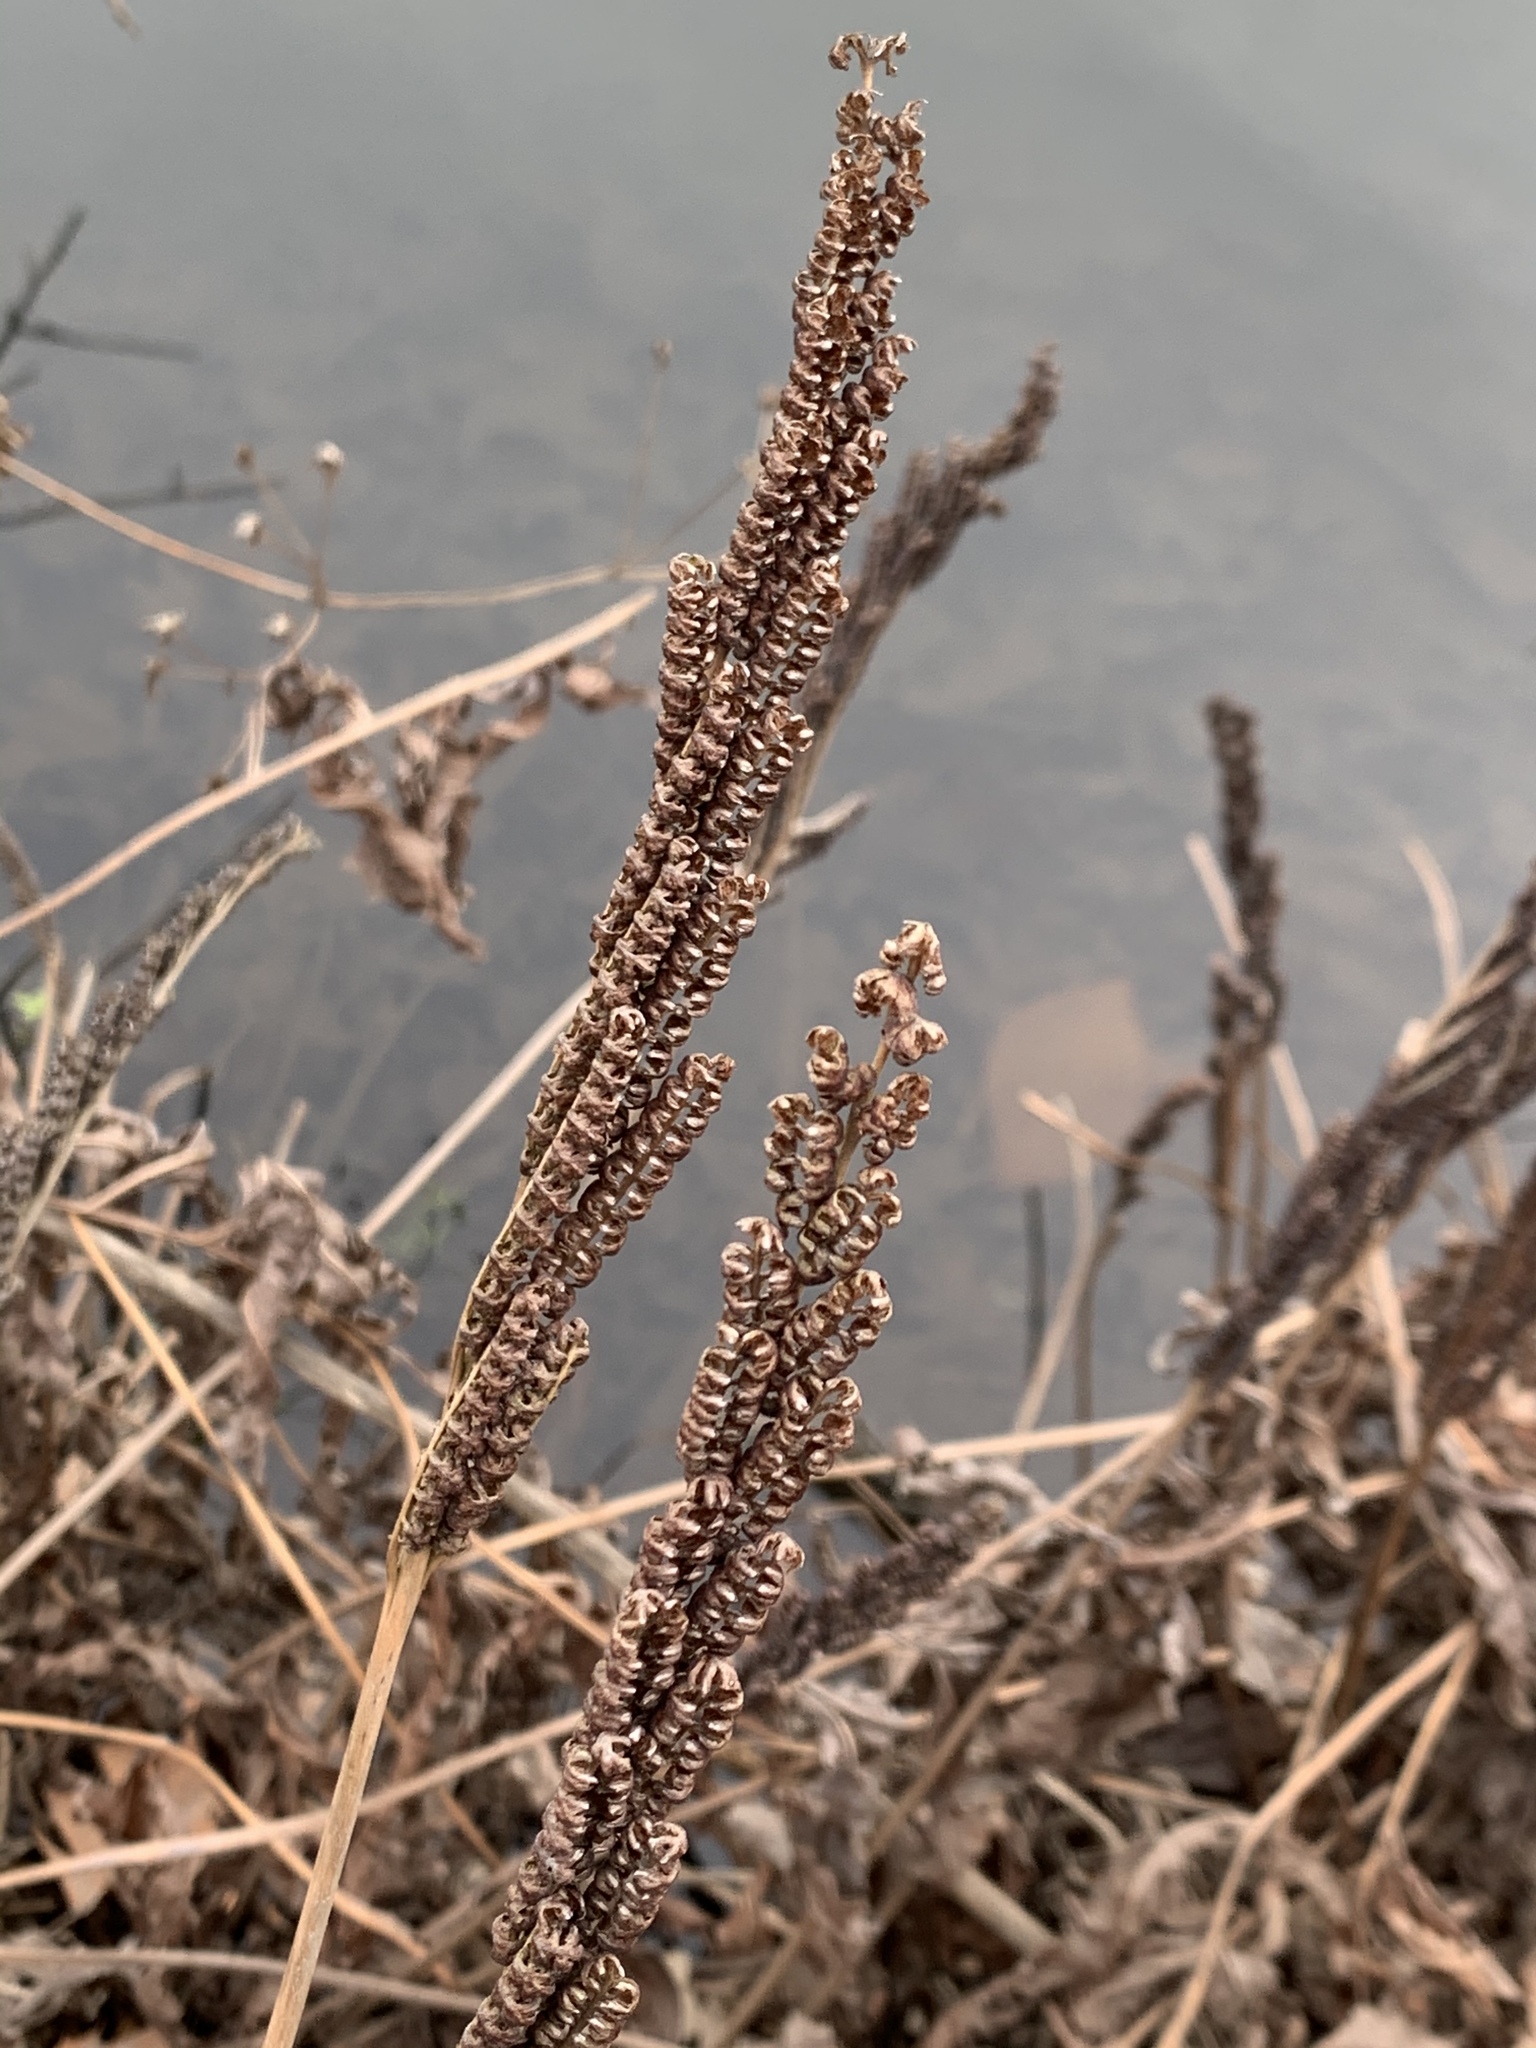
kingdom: Plantae
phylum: Tracheophyta
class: Polypodiopsida
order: Polypodiales
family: Onocleaceae
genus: Onoclea
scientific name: Onoclea sensibilis
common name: Sensitive fern
